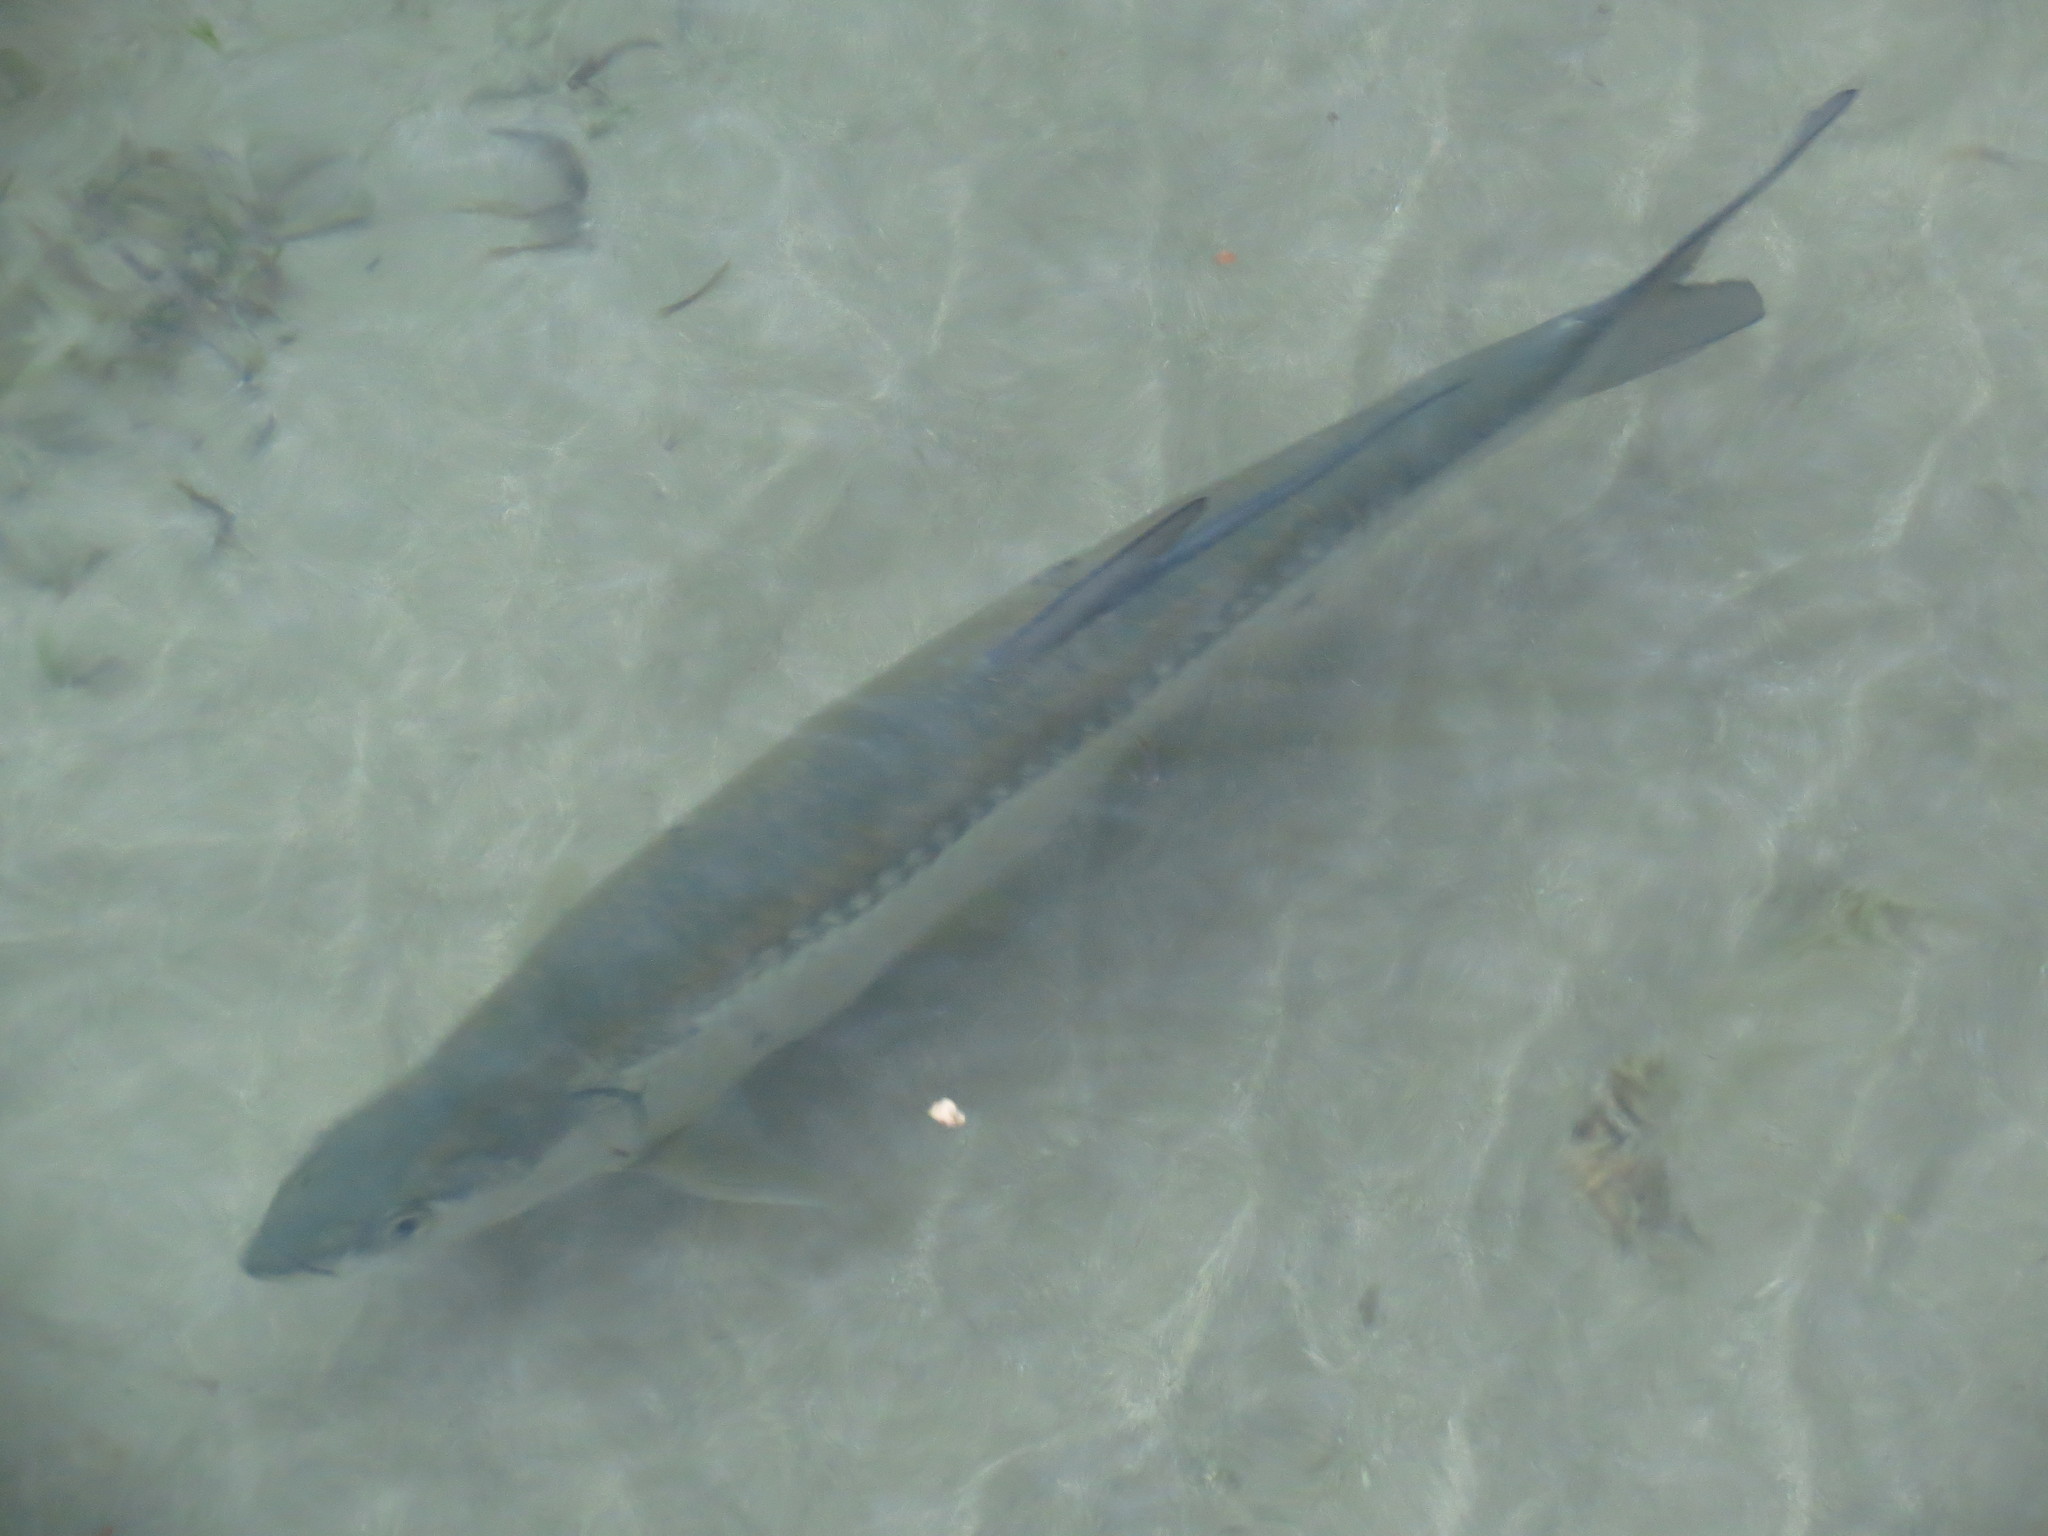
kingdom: Animalia
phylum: Chordata
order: Elopiformes
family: Megalopidae
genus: Megalops
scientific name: Megalops atlanticus
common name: Tarpon
